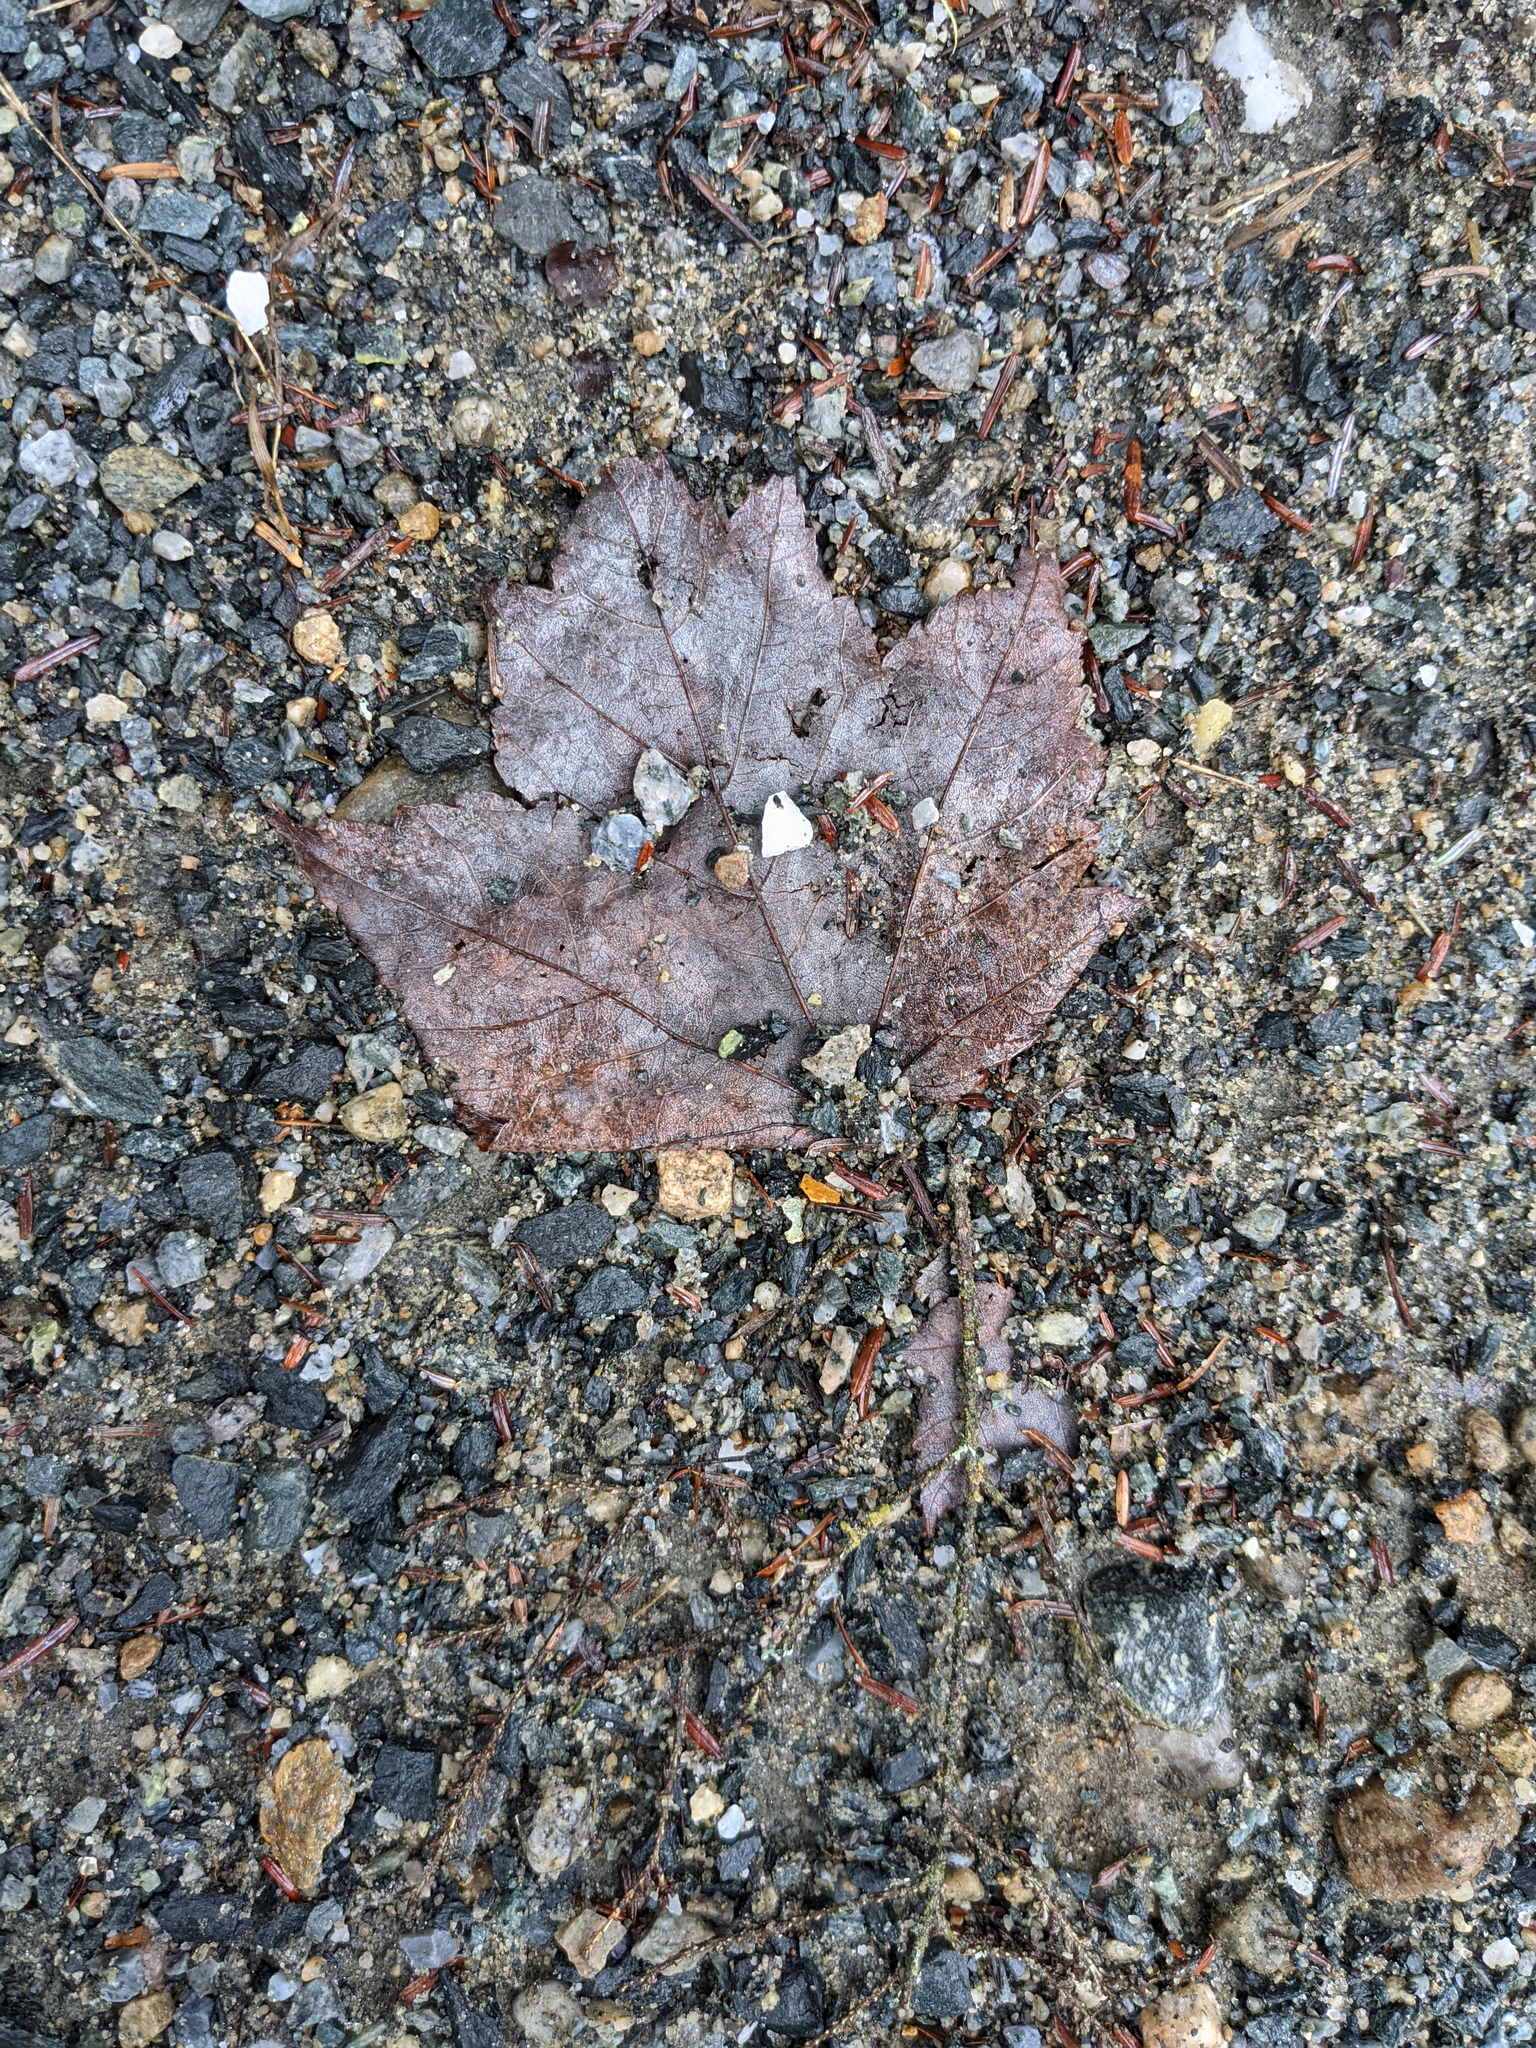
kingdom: Plantae
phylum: Tracheophyta
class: Magnoliopsida
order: Sapindales
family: Sapindaceae
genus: Acer
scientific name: Acer rubrum
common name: Red maple
